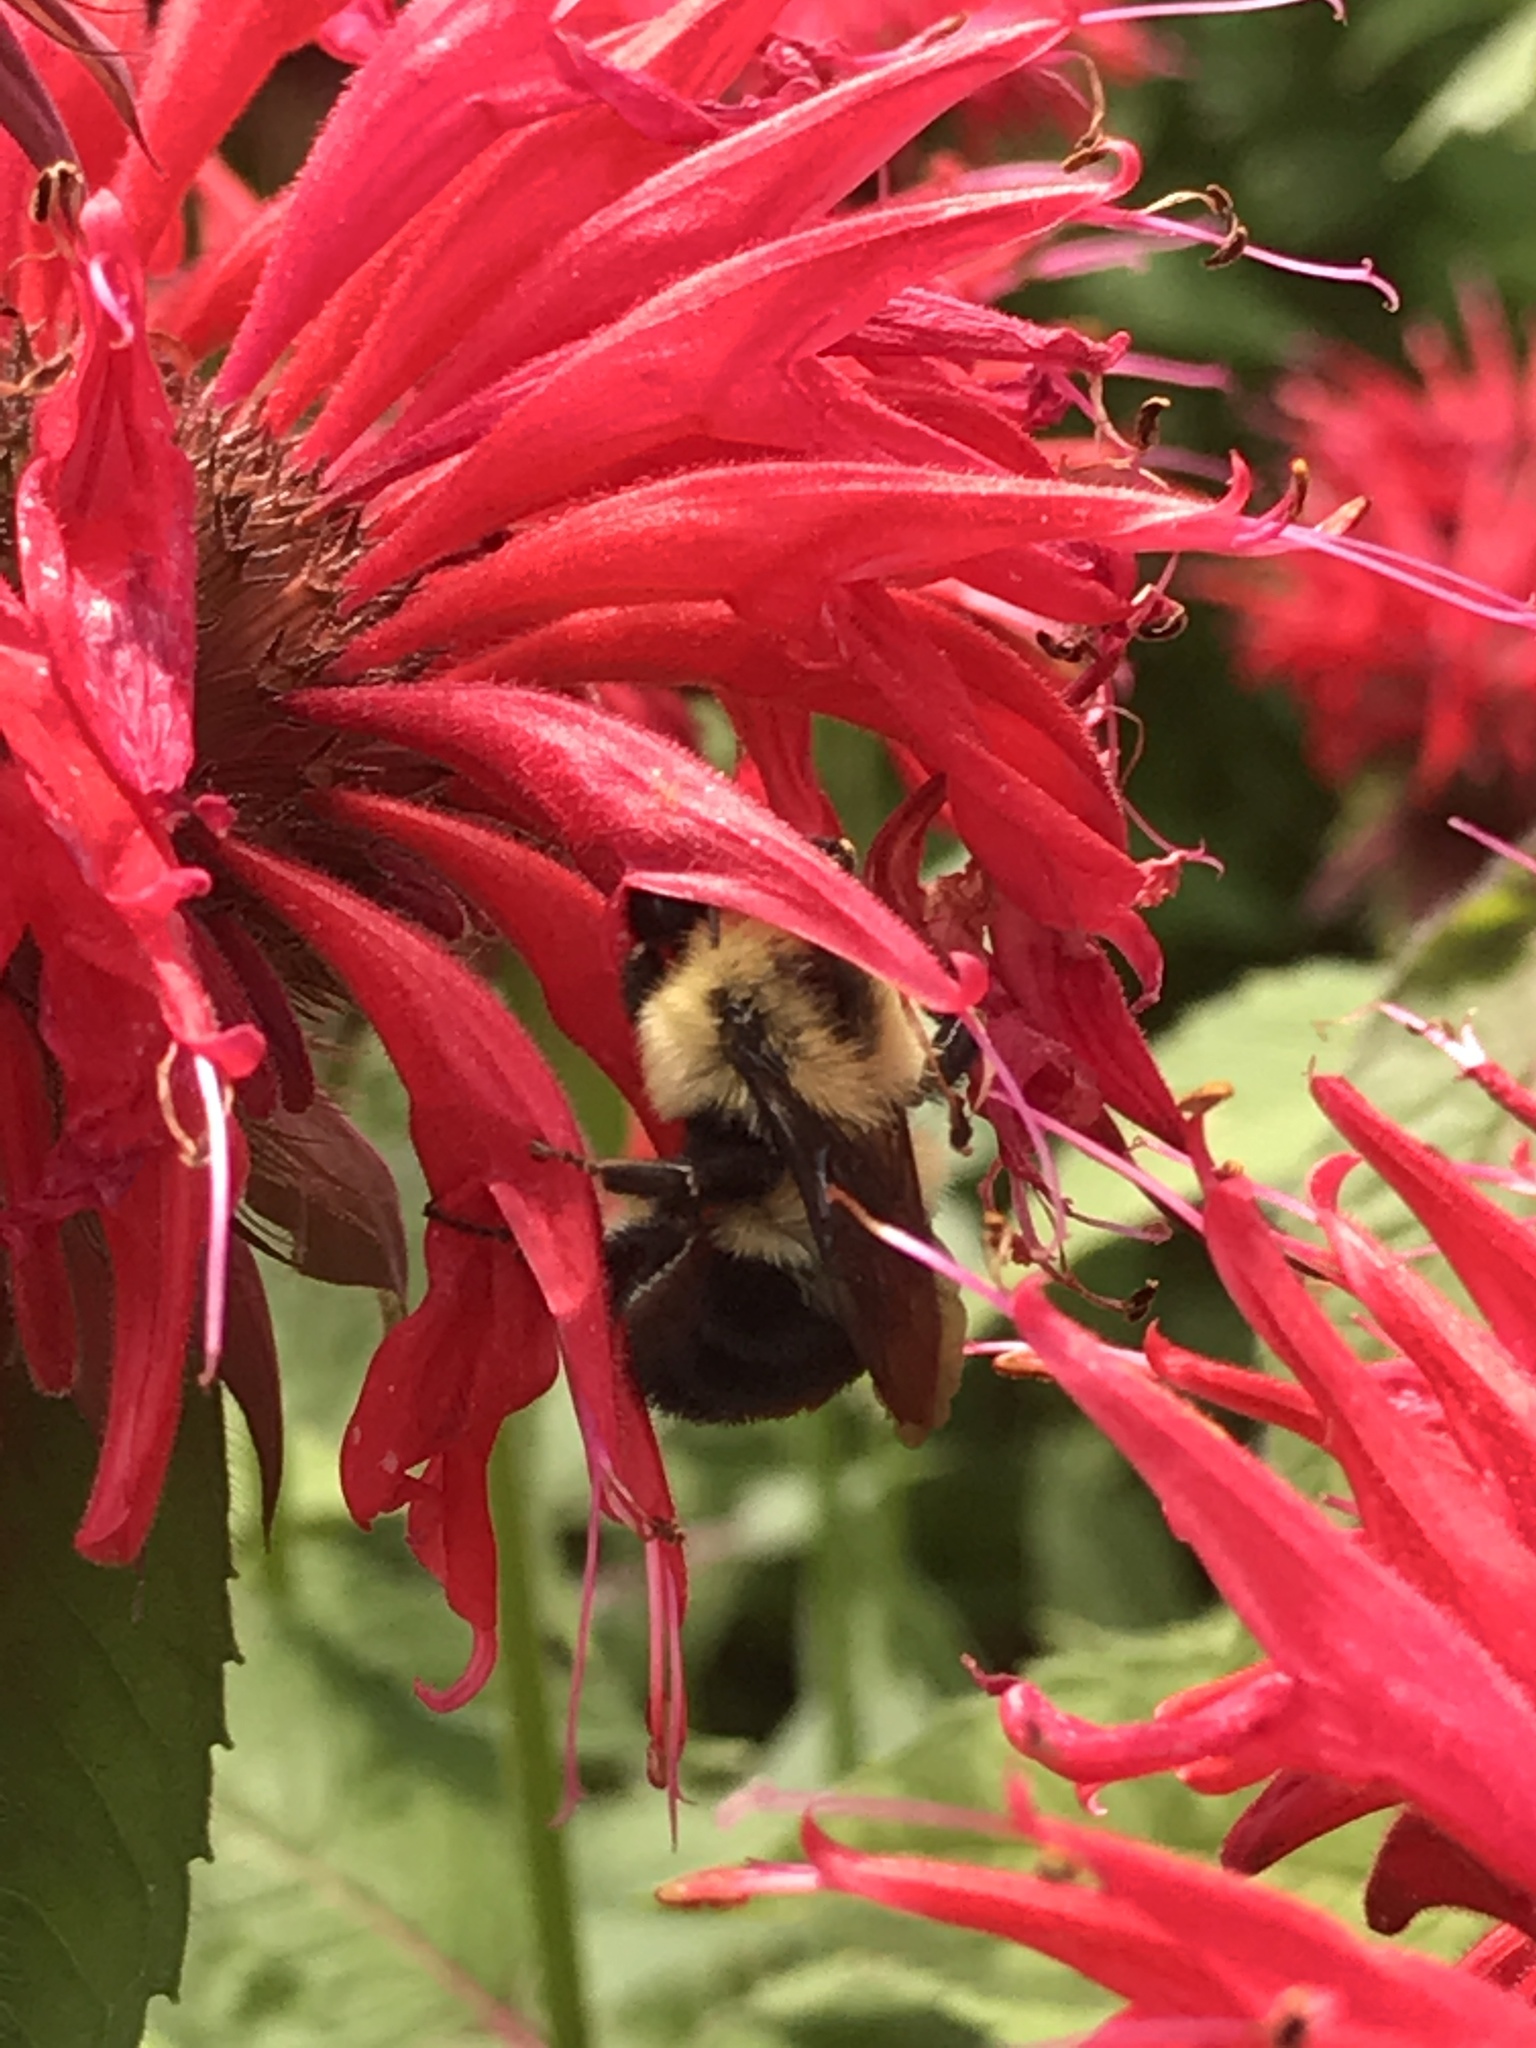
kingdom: Animalia
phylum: Arthropoda
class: Insecta
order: Hymenoptera
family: Apidae
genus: Bombus
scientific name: Bombus griseocollis
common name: Brown-belted bumble bee
